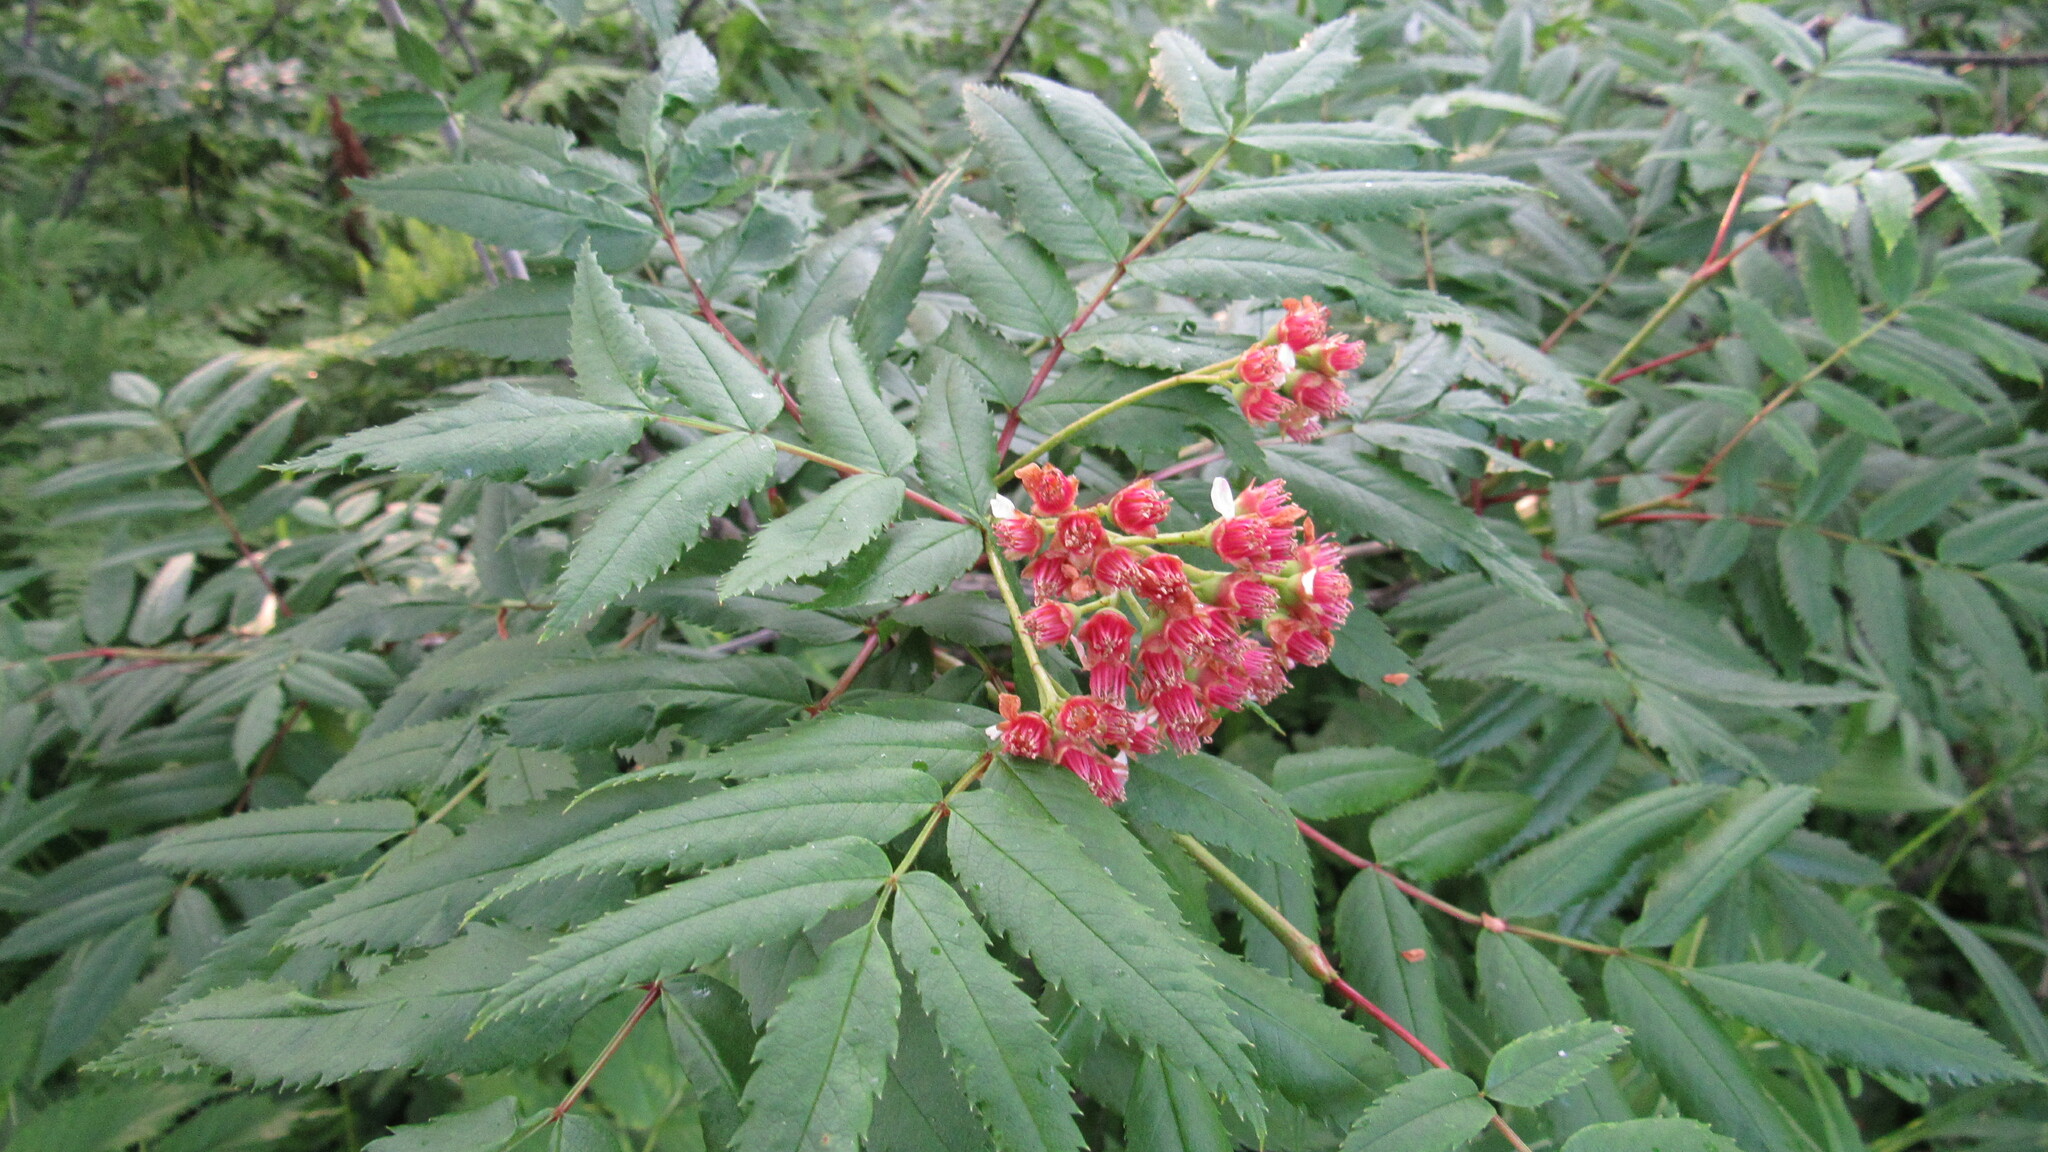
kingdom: Plantae
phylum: Tracheophyta
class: Magnoliopsida
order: Rosales
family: Rosaceae
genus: Sorbus
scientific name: Sorbus sambucifolia
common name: Siberian mountain-ash
